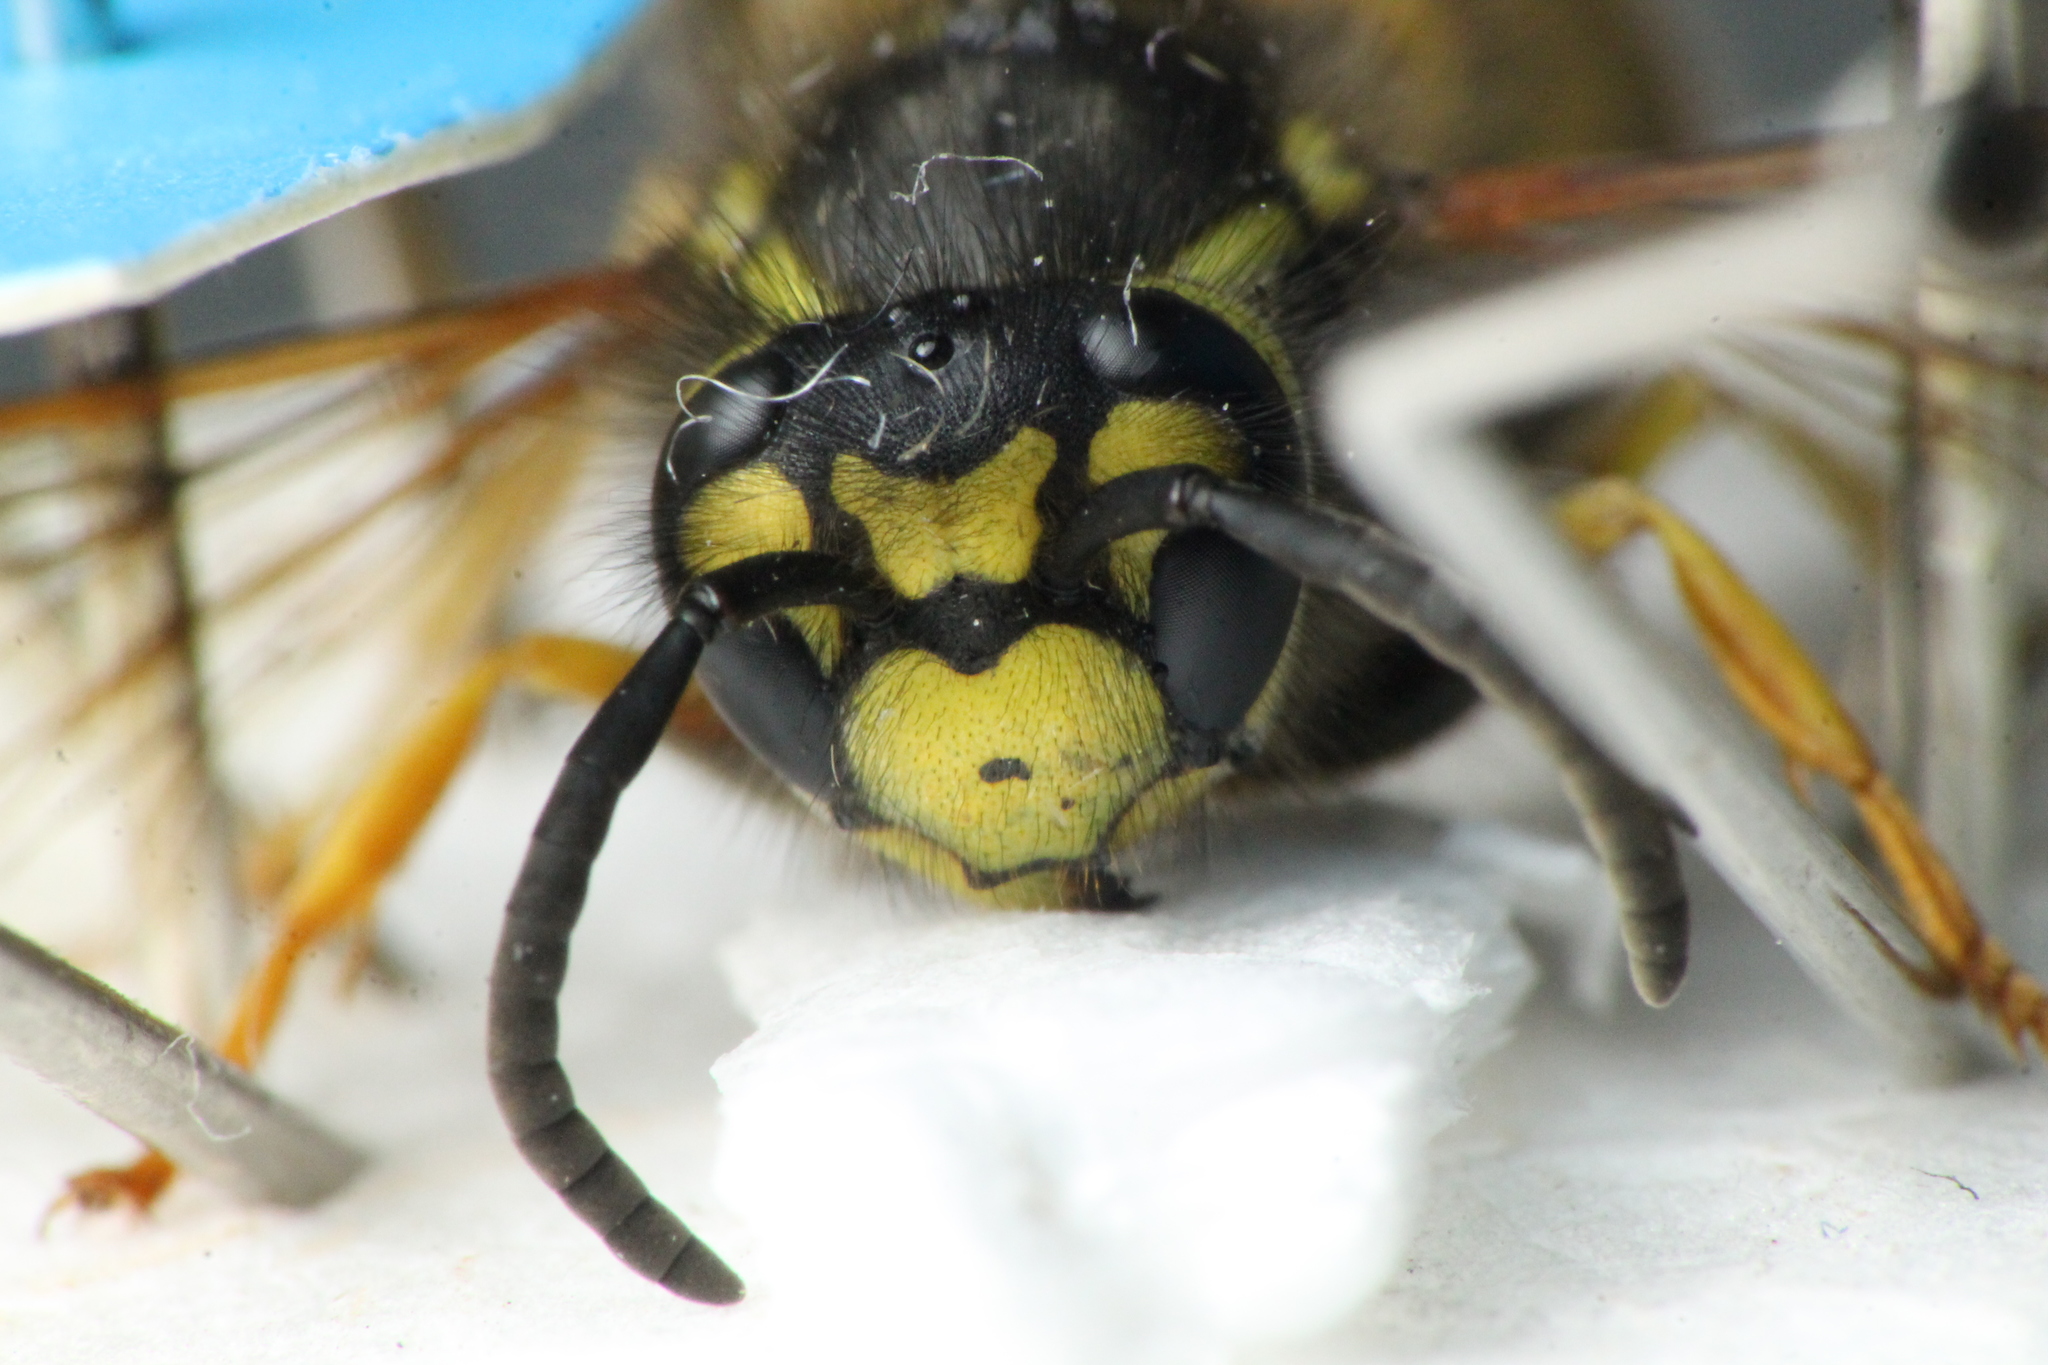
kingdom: Animalia
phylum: Arthropoda
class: Insecta
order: Hymenoptera
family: Vespidae
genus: Vespula
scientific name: Vespula germanica
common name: German wasp
